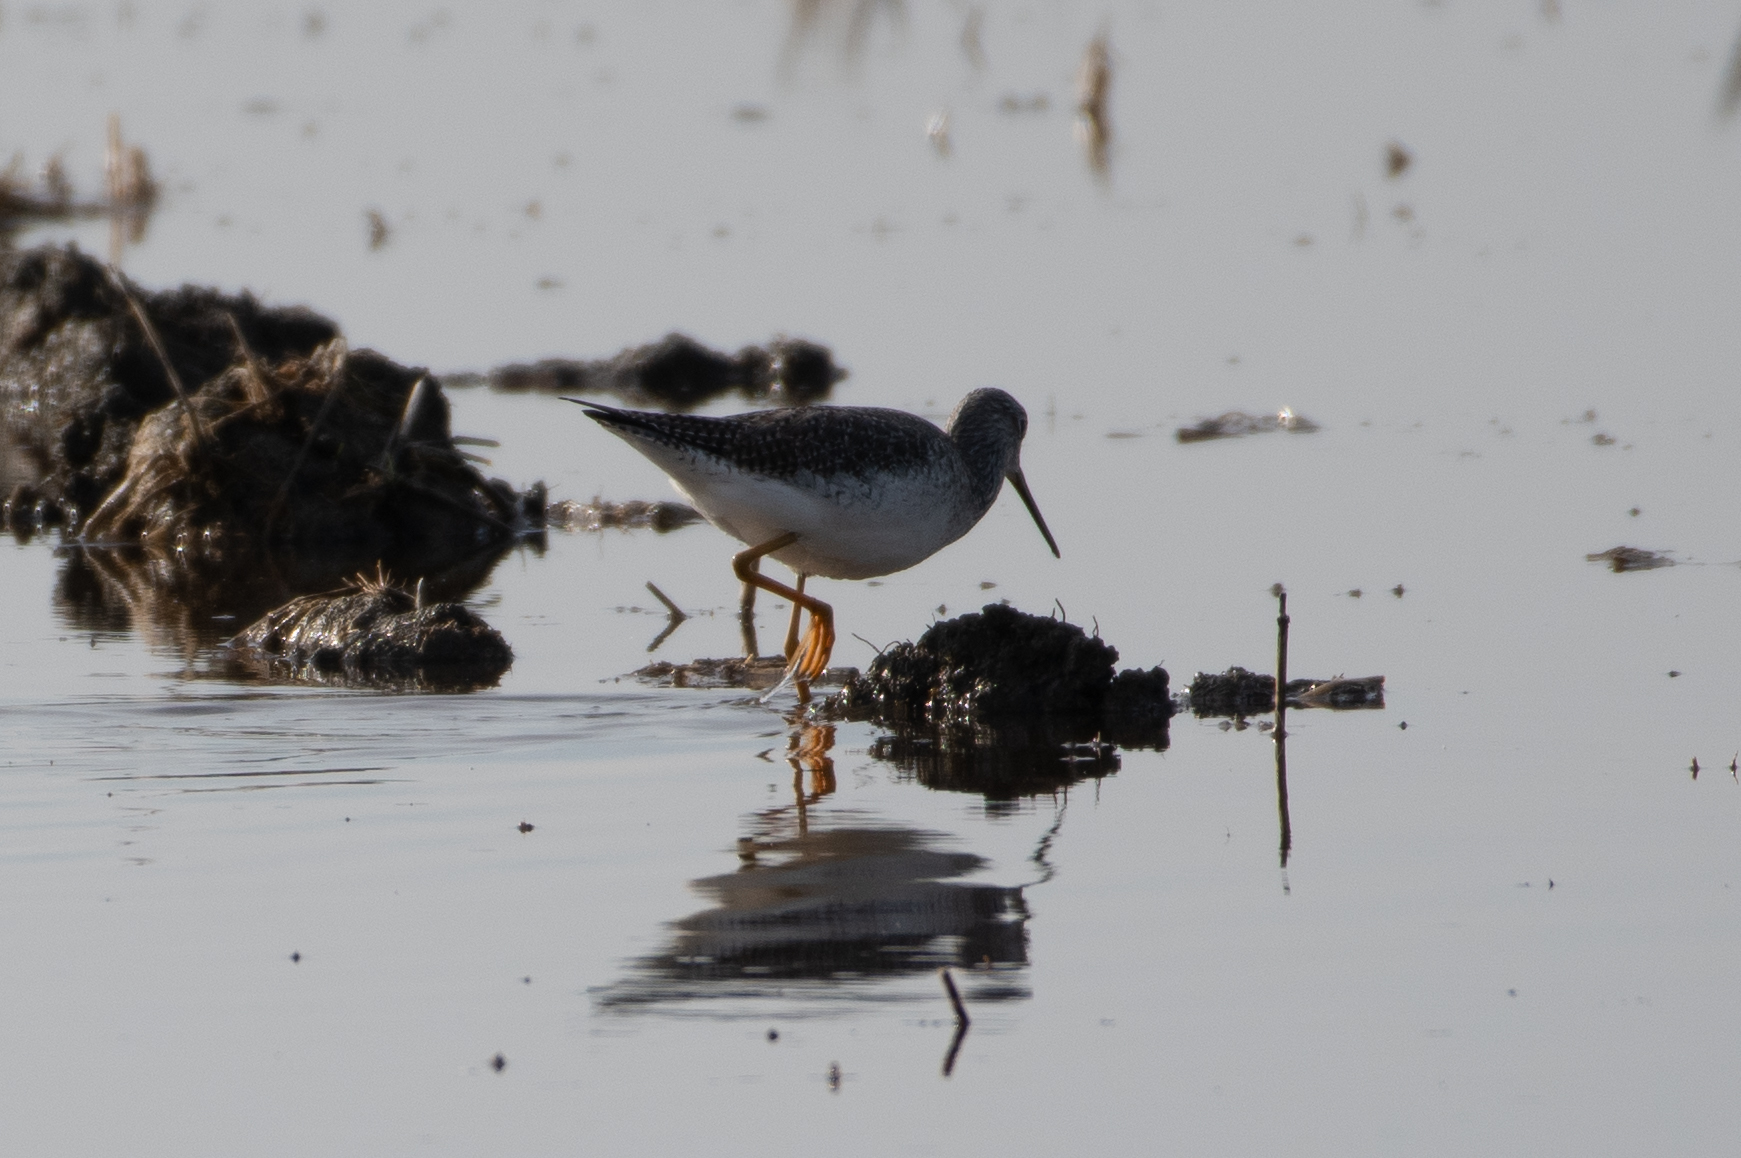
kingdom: Animalia
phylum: Chordata
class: Aves
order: Charadriiformes
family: Scolopacidae
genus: Tringa
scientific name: Tringa melanoleuca
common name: Greater yellowlegs
